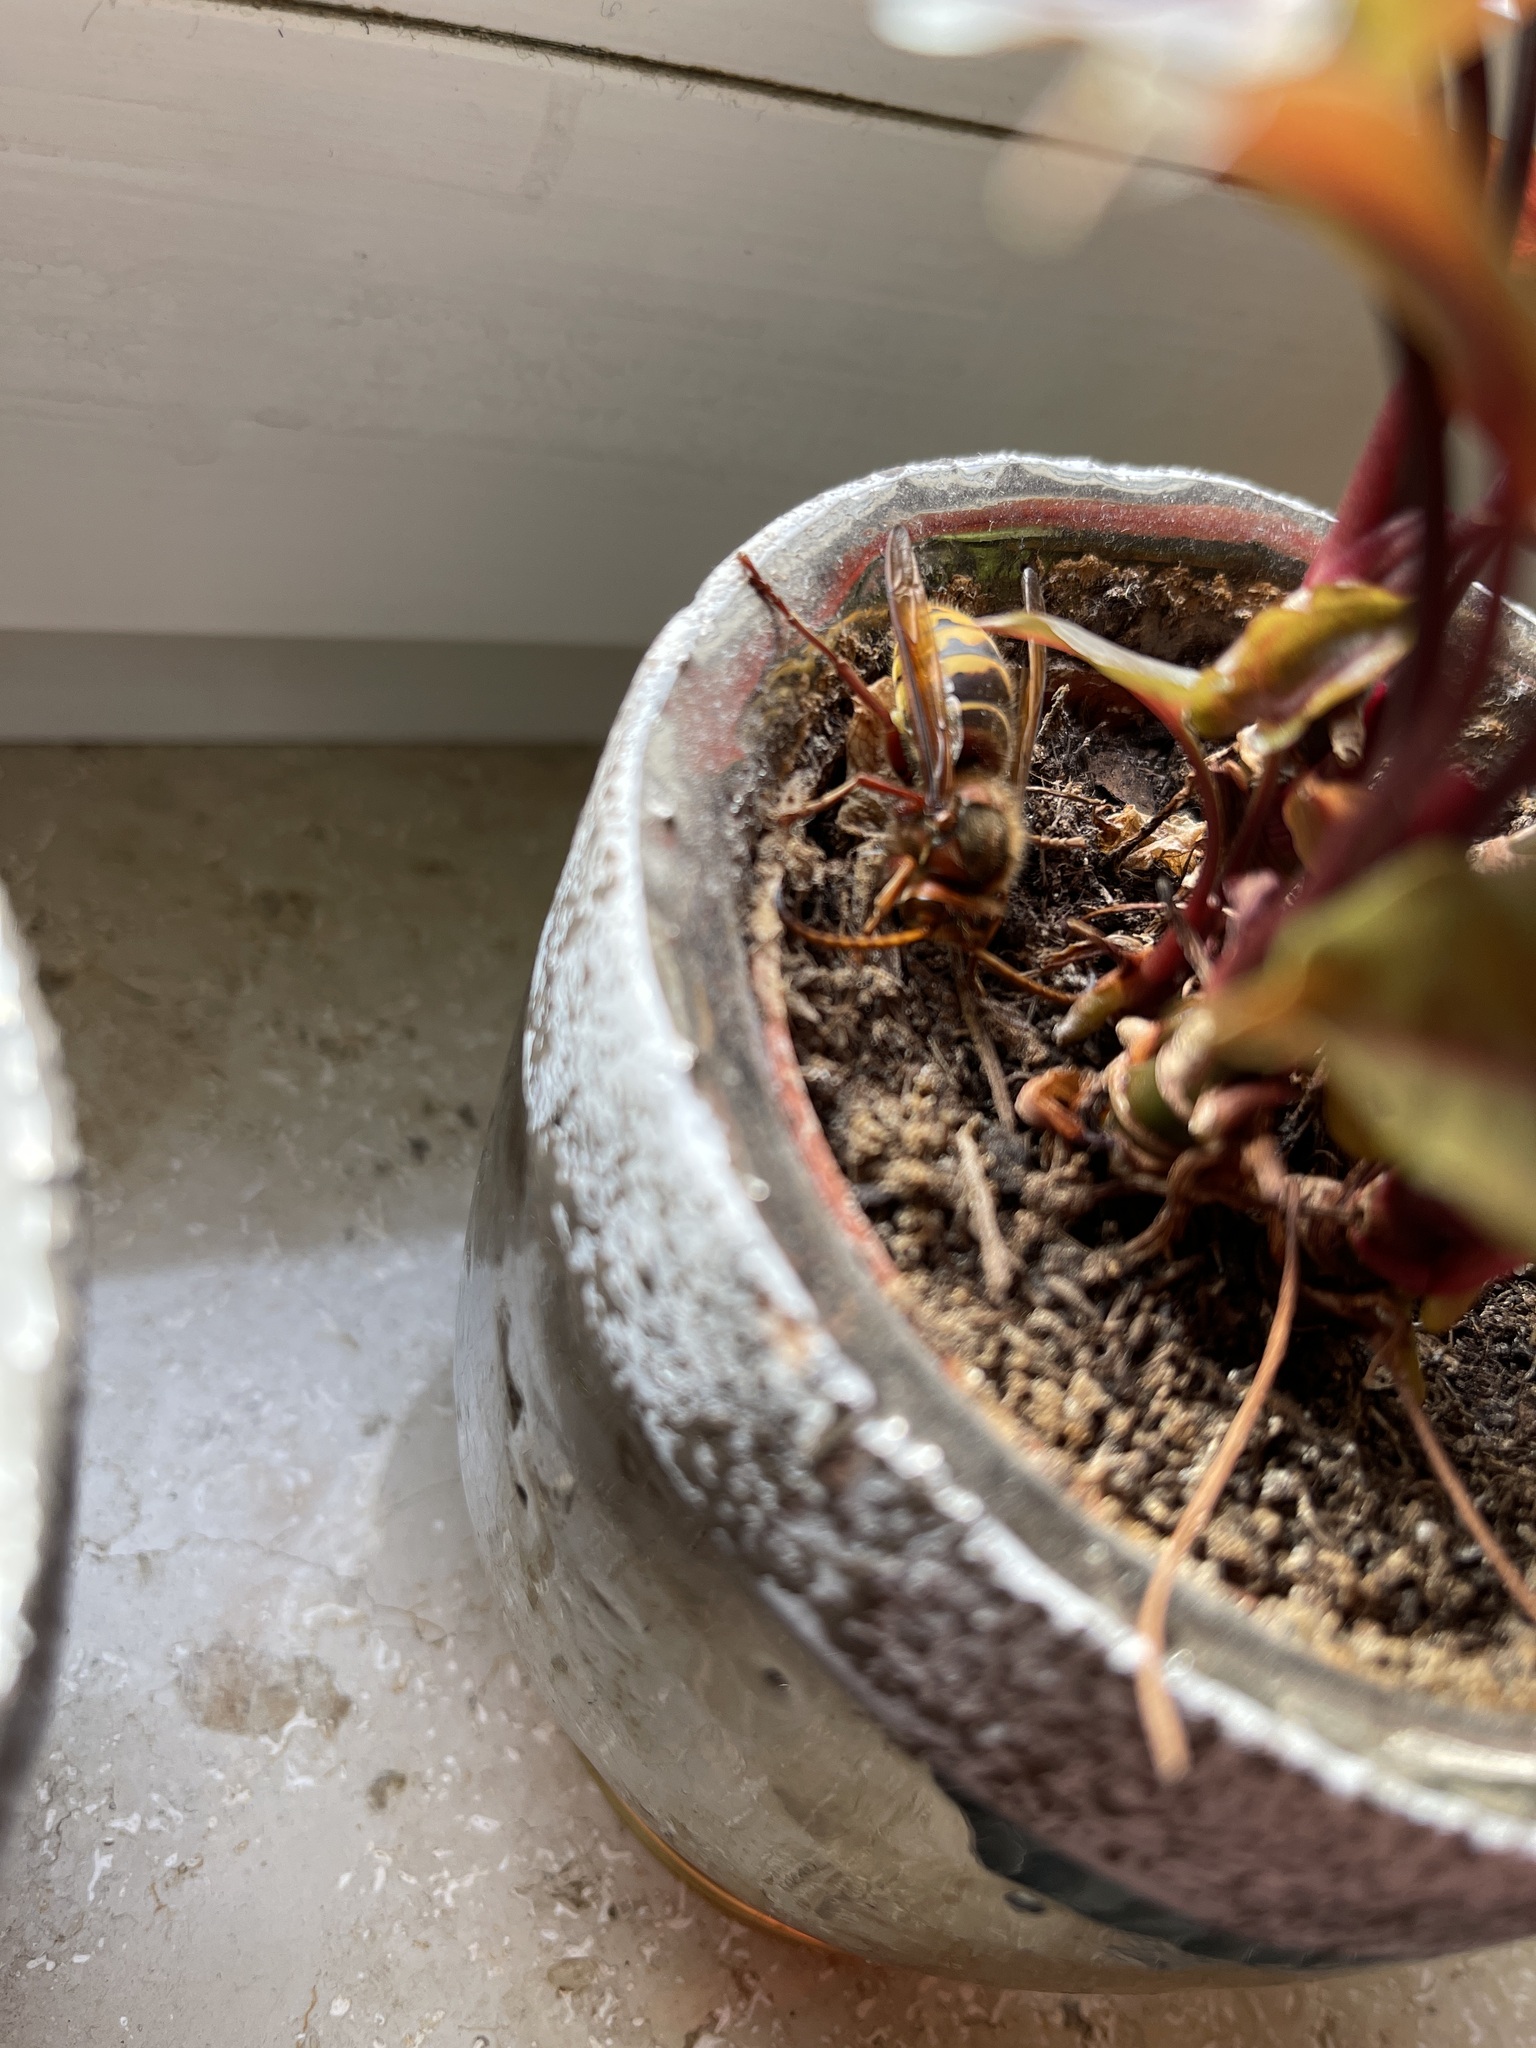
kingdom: Animalia
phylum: Arthropoda
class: Insecta
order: Hymenoptera
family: Vespidae
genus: Vespa
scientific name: Vespa crabro
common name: Hornet
